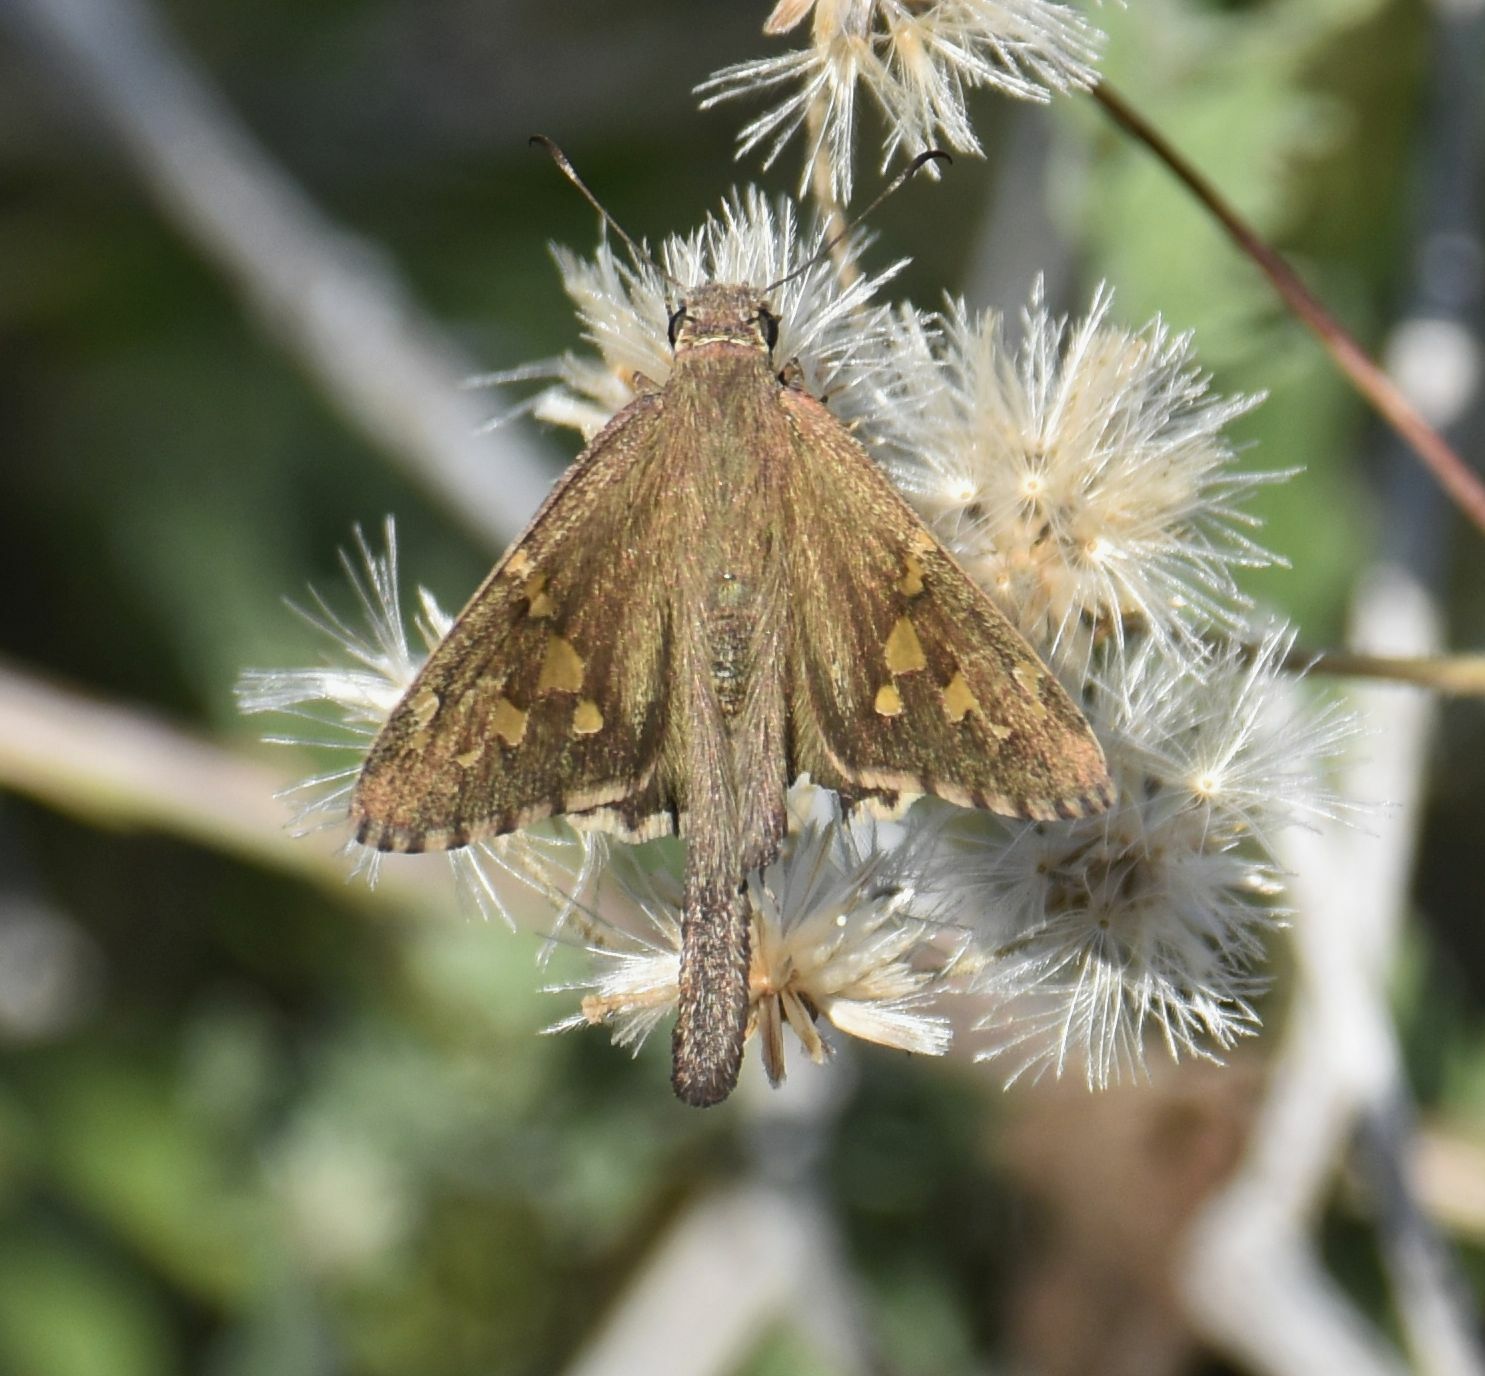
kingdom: Animalia
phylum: Arthropoda
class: Insecta
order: Lepidoptera
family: Hesperiidae
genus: Thorybes
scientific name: Thorybes
